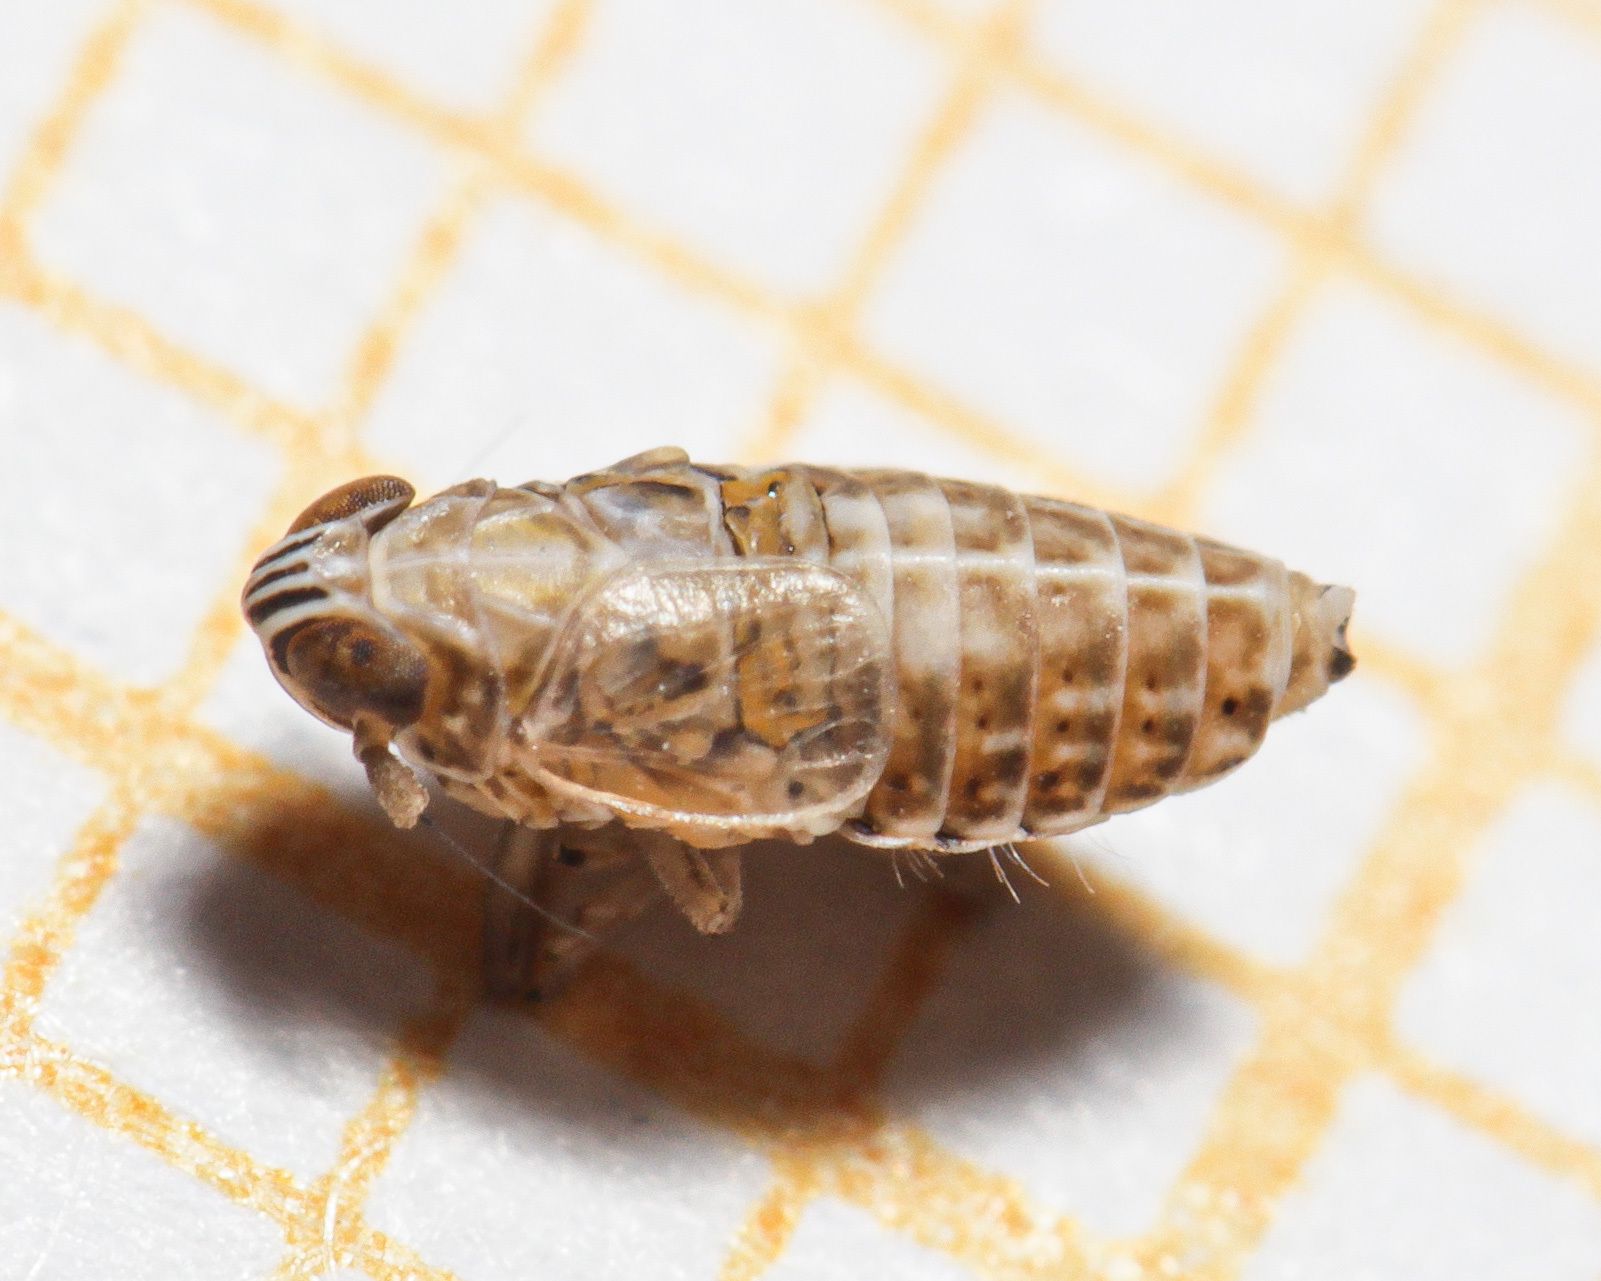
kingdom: Animalia
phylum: Arthropoda
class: Insecta
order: Hemiptera
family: Delphacidae
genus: Hyledelphax
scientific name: Hyledelphax elegantulus
